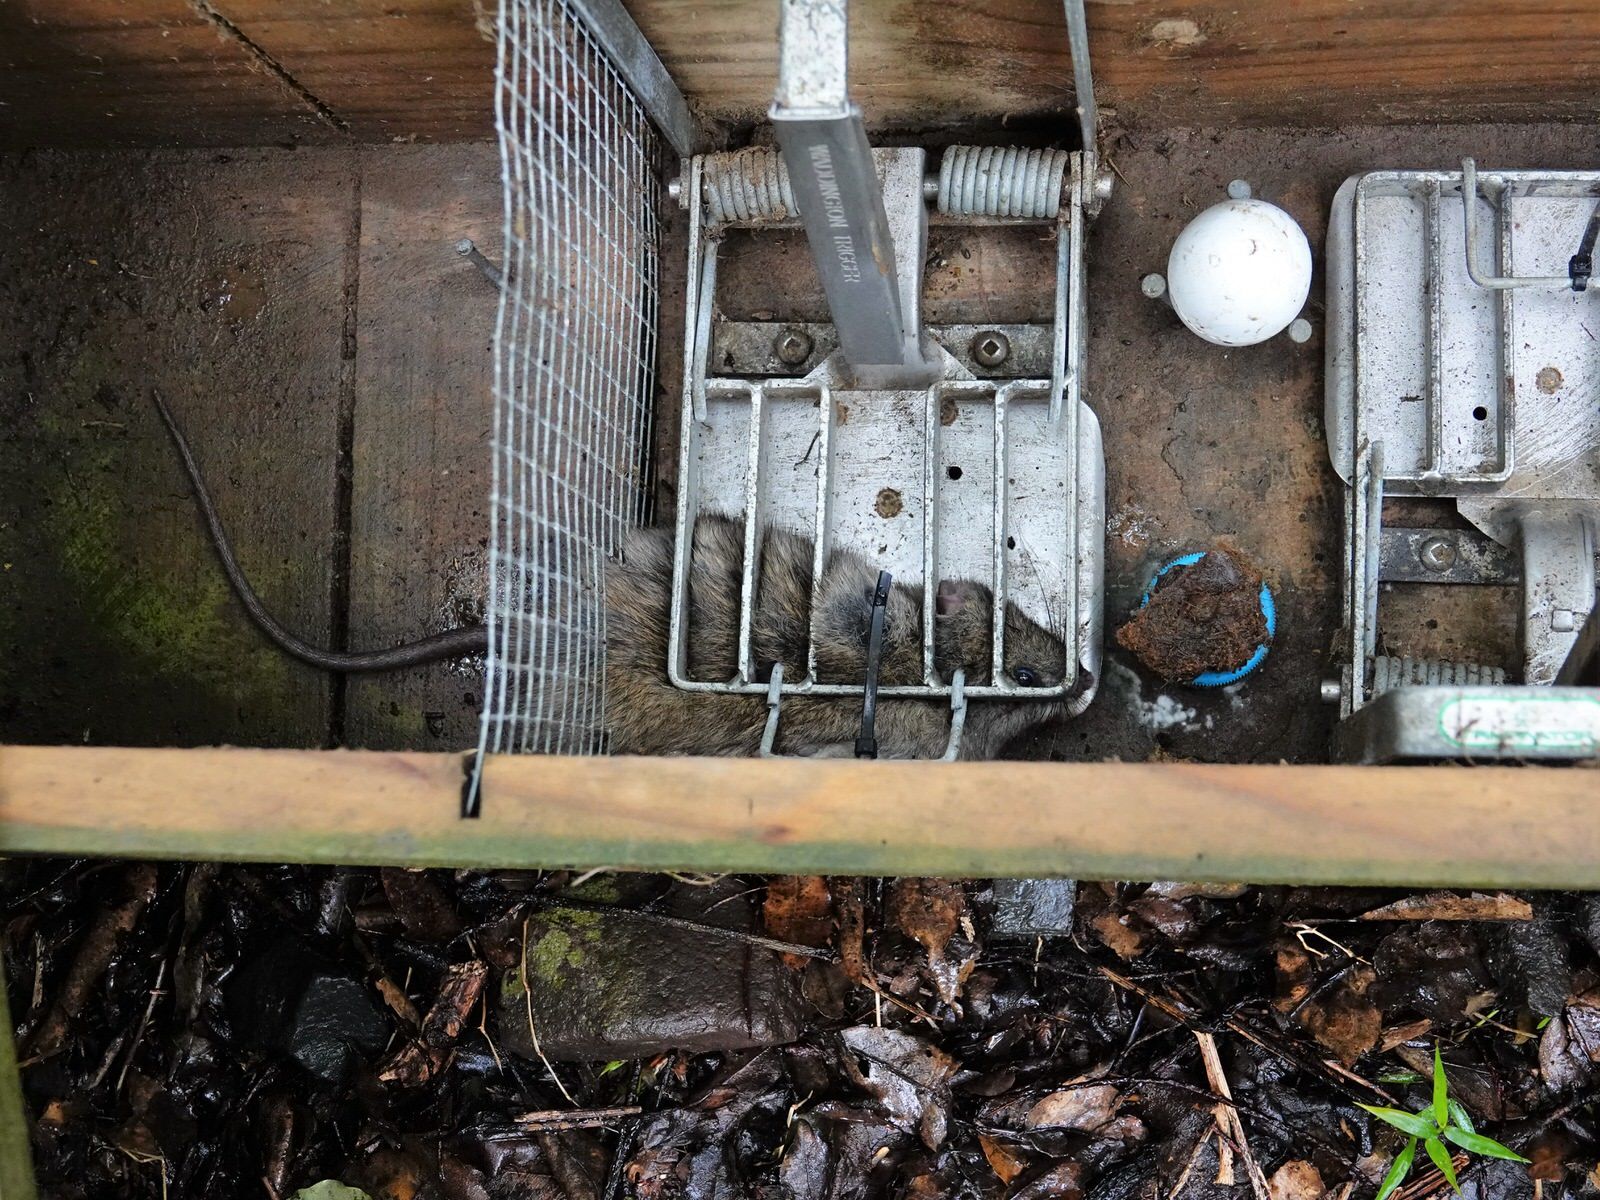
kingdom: Animalia
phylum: Chordata
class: Mammalia
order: Rodentia
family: Muridae
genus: Rattus
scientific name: Rattus rattus
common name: Black rat
